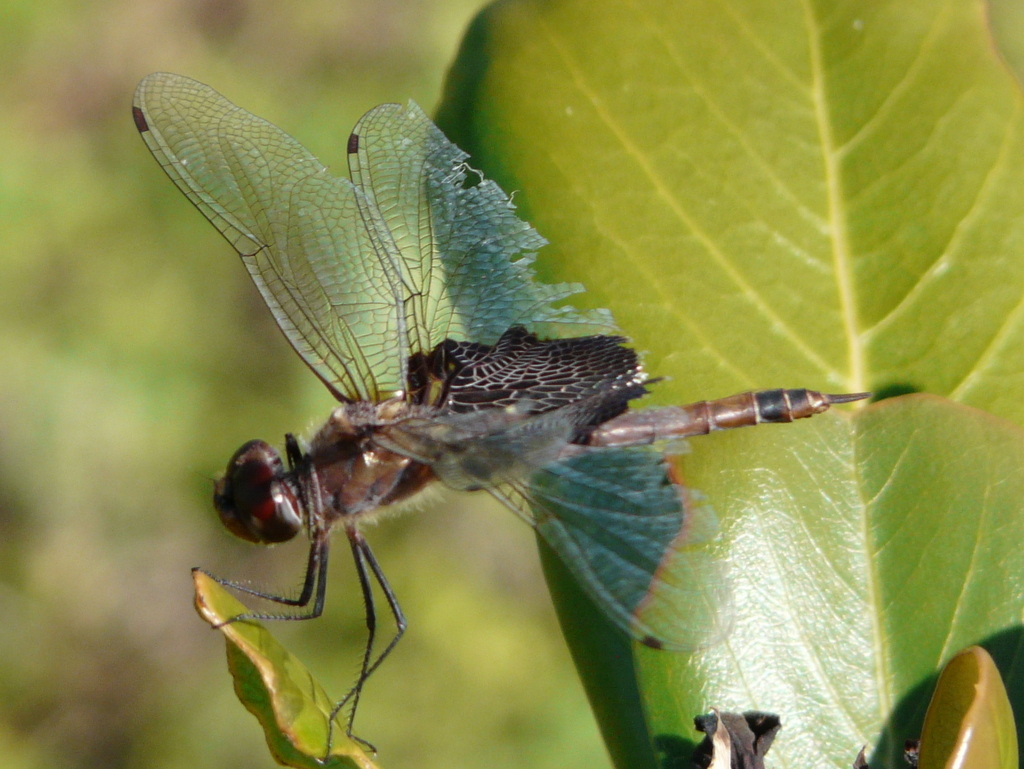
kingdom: Animalia
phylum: Arthropoda
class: Insecta
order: Odonata
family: Libellulidae
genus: Tramea
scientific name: Tramea carolina
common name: Carolina saddlebags
